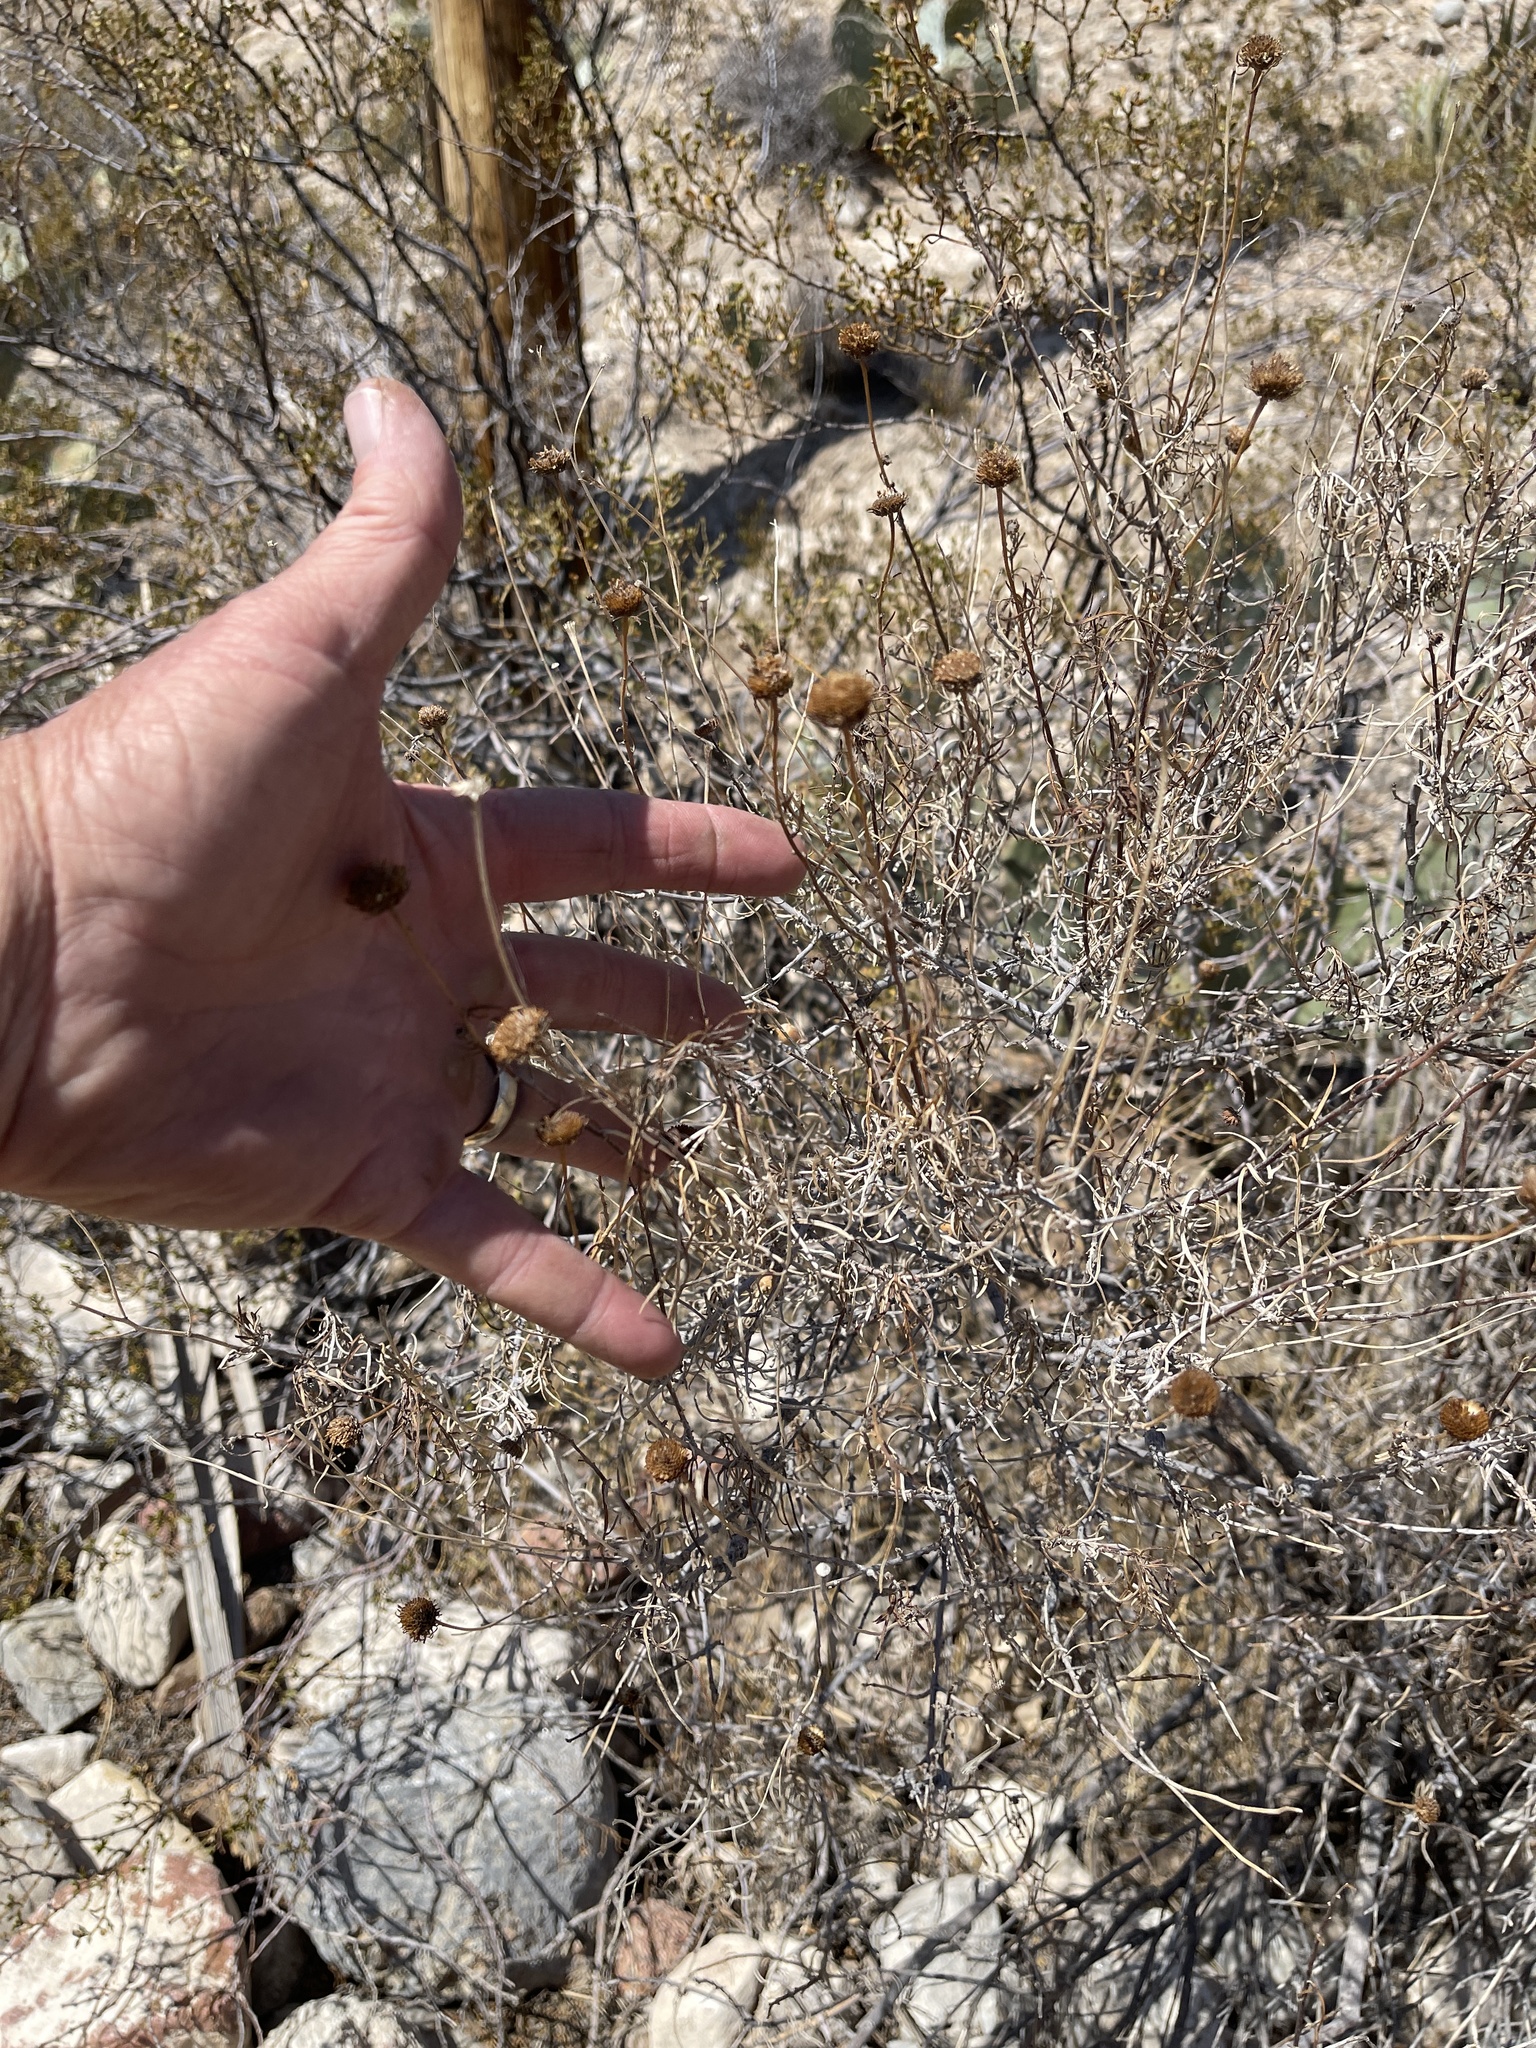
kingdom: Plantae
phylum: Tracheophyta
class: Magnoliopsida
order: Asterales
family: Asteraceae
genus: Sidneya
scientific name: Sidneya tenuifolia
